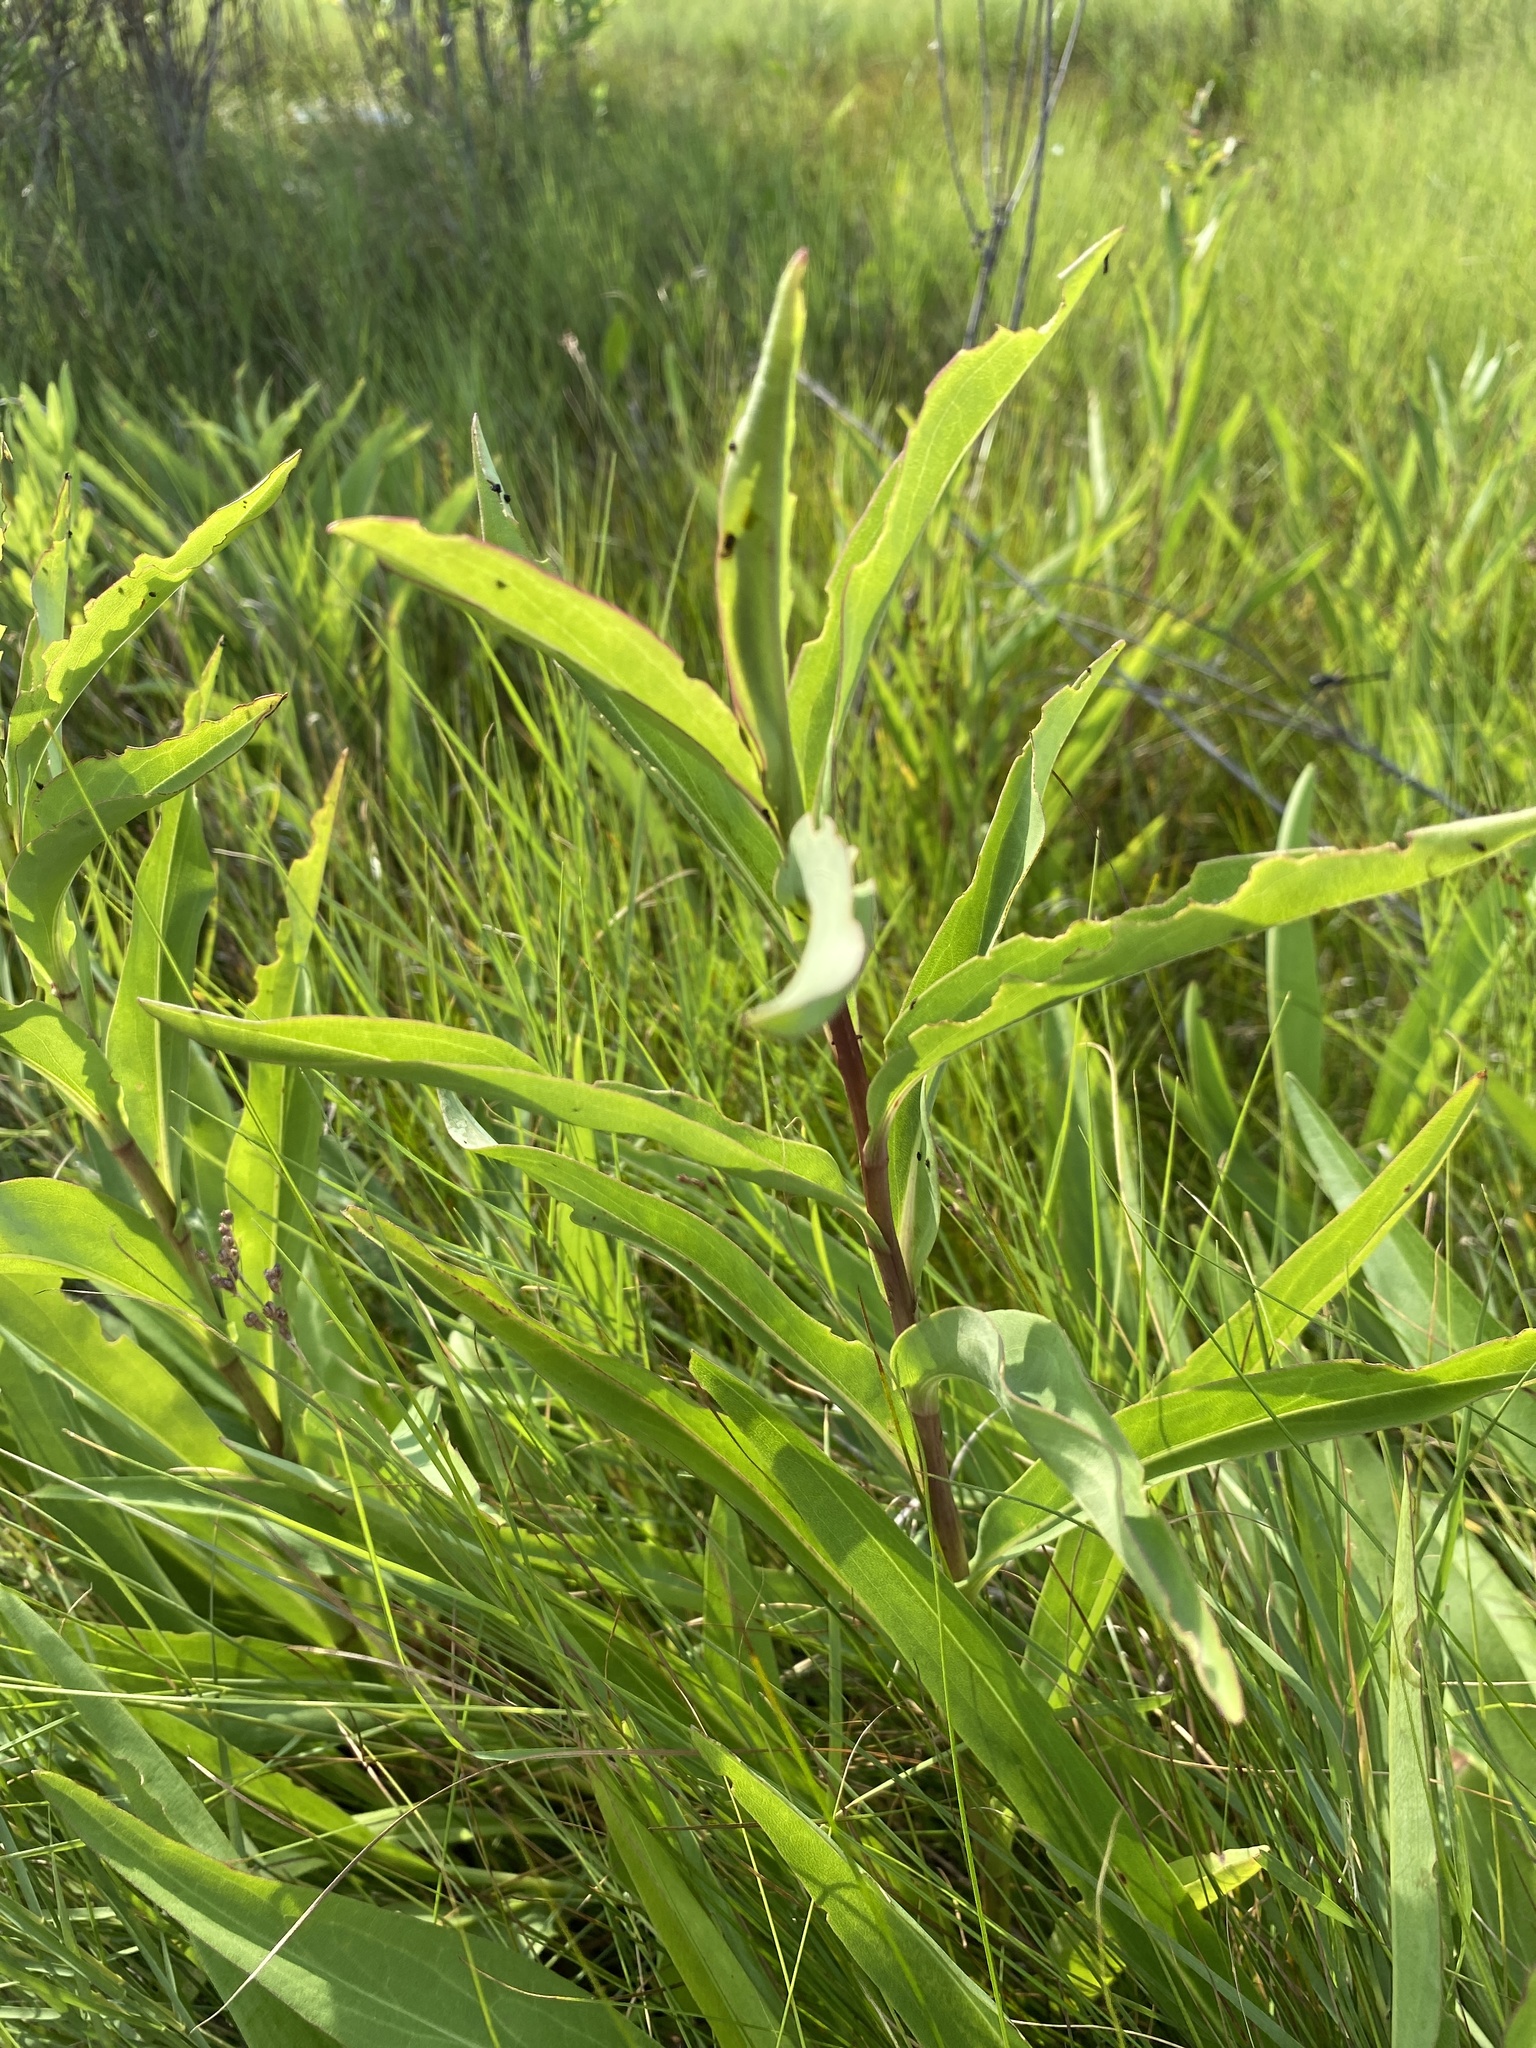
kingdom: Plantae
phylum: Tracheophyta
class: Magnoliopsida
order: Asterales
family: Asteraceae
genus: Solidago
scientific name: Solidago sempervirens
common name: Salt-marsh goldenrod
